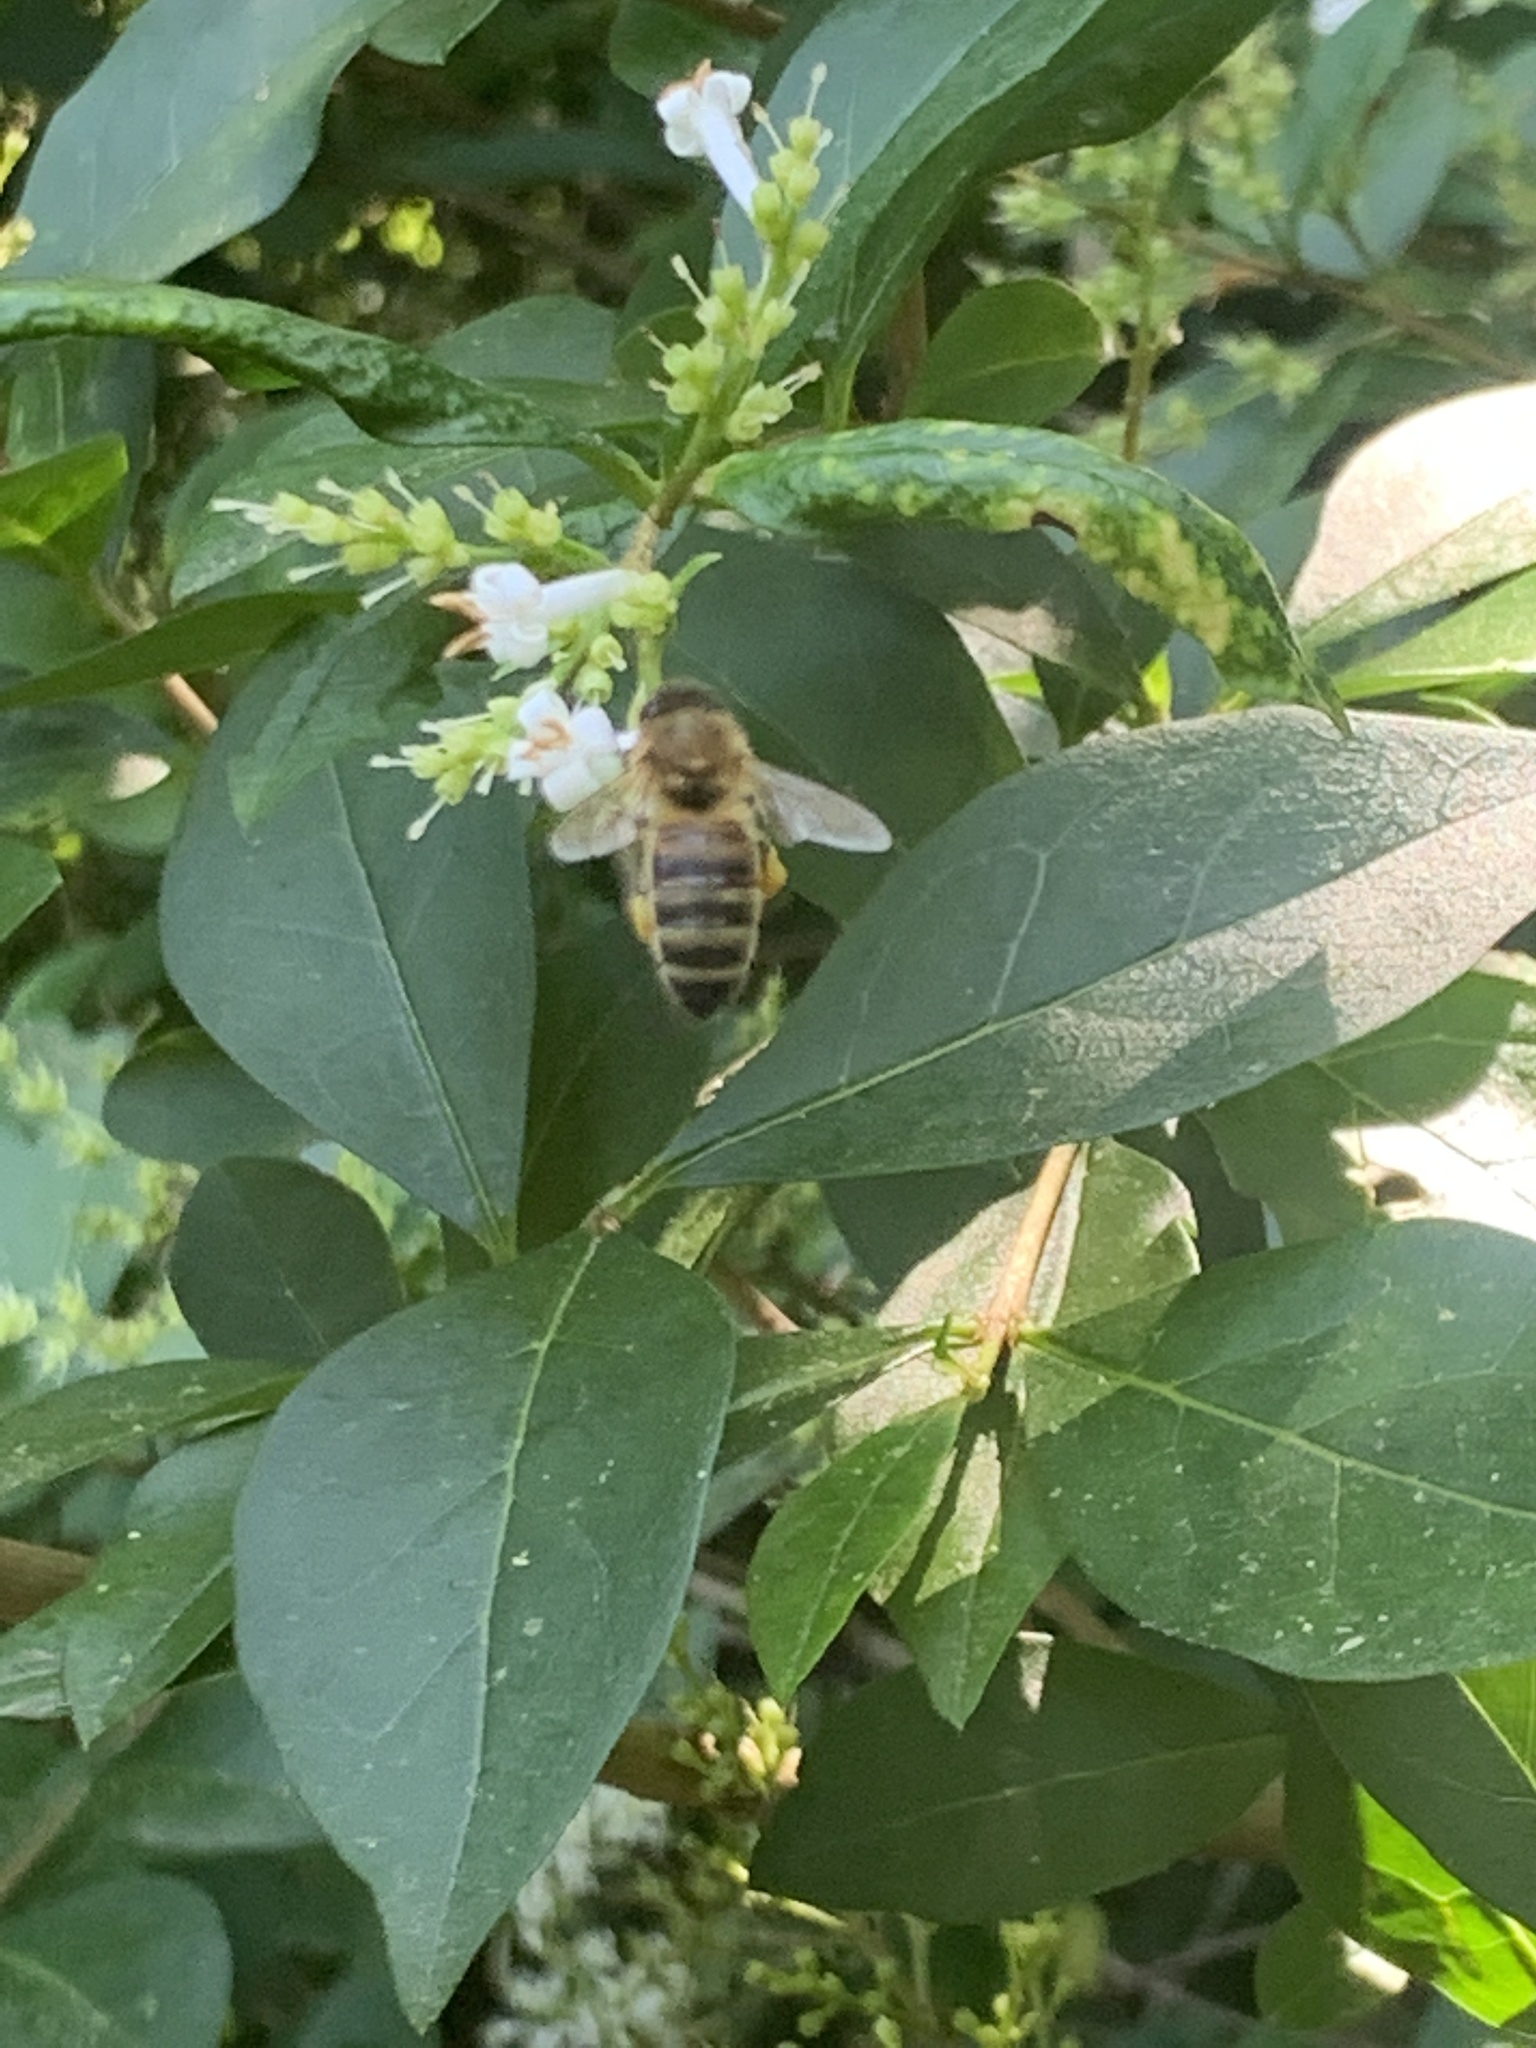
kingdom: Animalia
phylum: Arthropoda
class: Insecta
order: Hymenoptera
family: Apidae
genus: Apis
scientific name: Apis mellifera
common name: Honey bee
